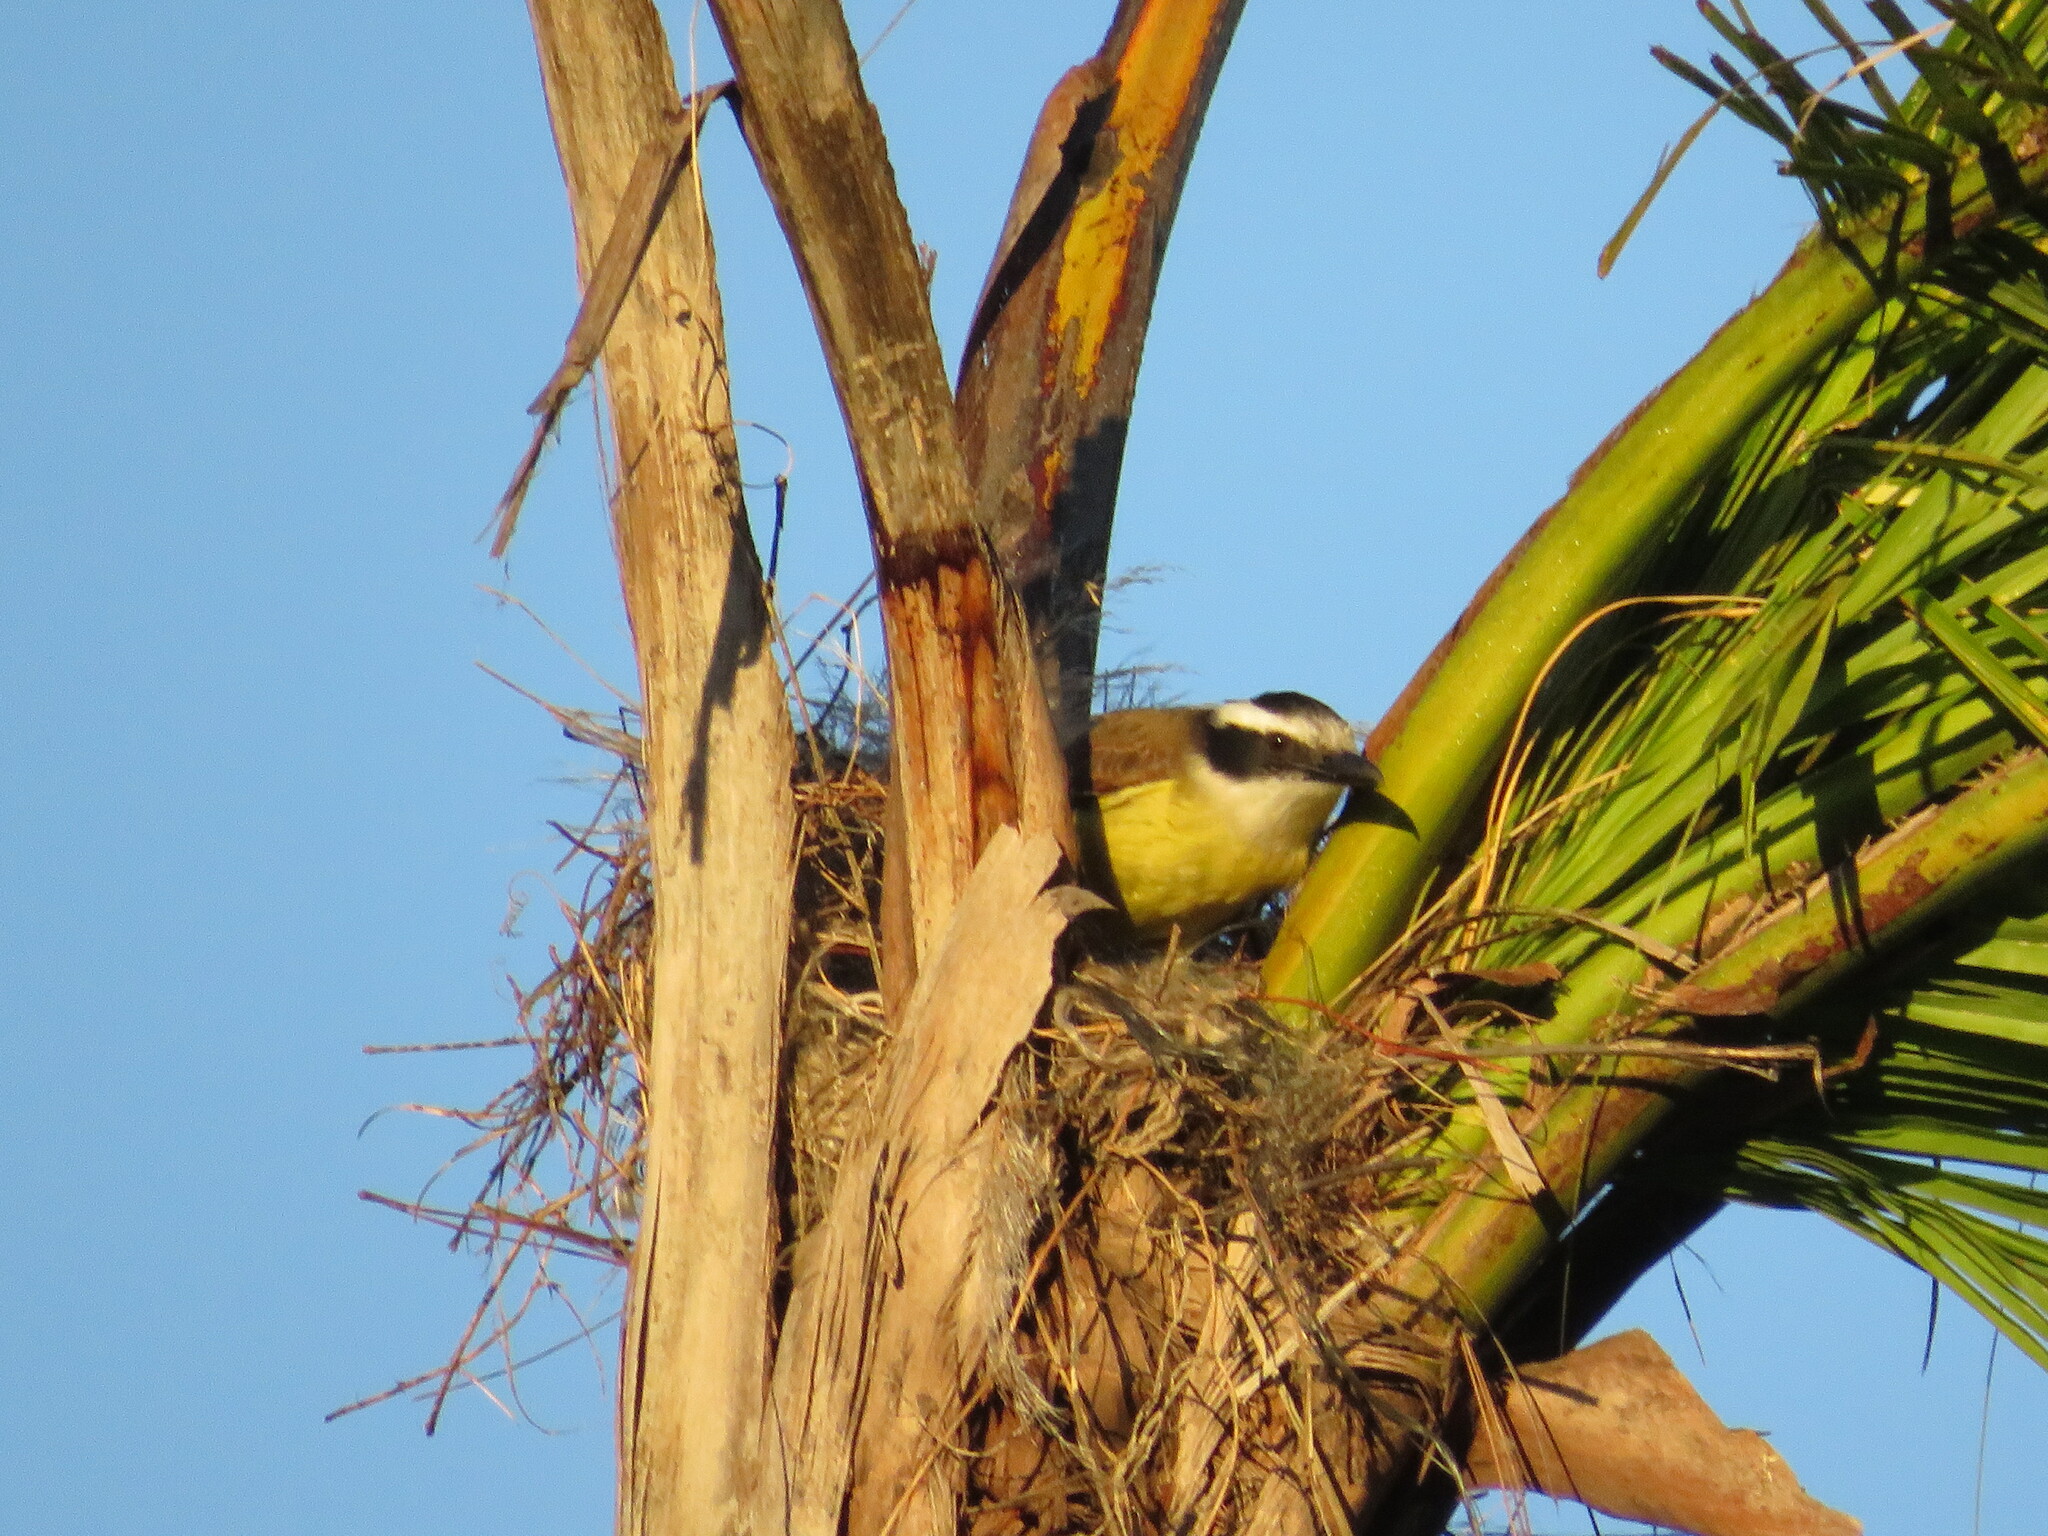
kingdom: Animalia
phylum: Chordata
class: Aves
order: Passeriformes
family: Tyrannidae
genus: Pitangus
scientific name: Pitangus sulphuratus
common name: Great kiskadee
